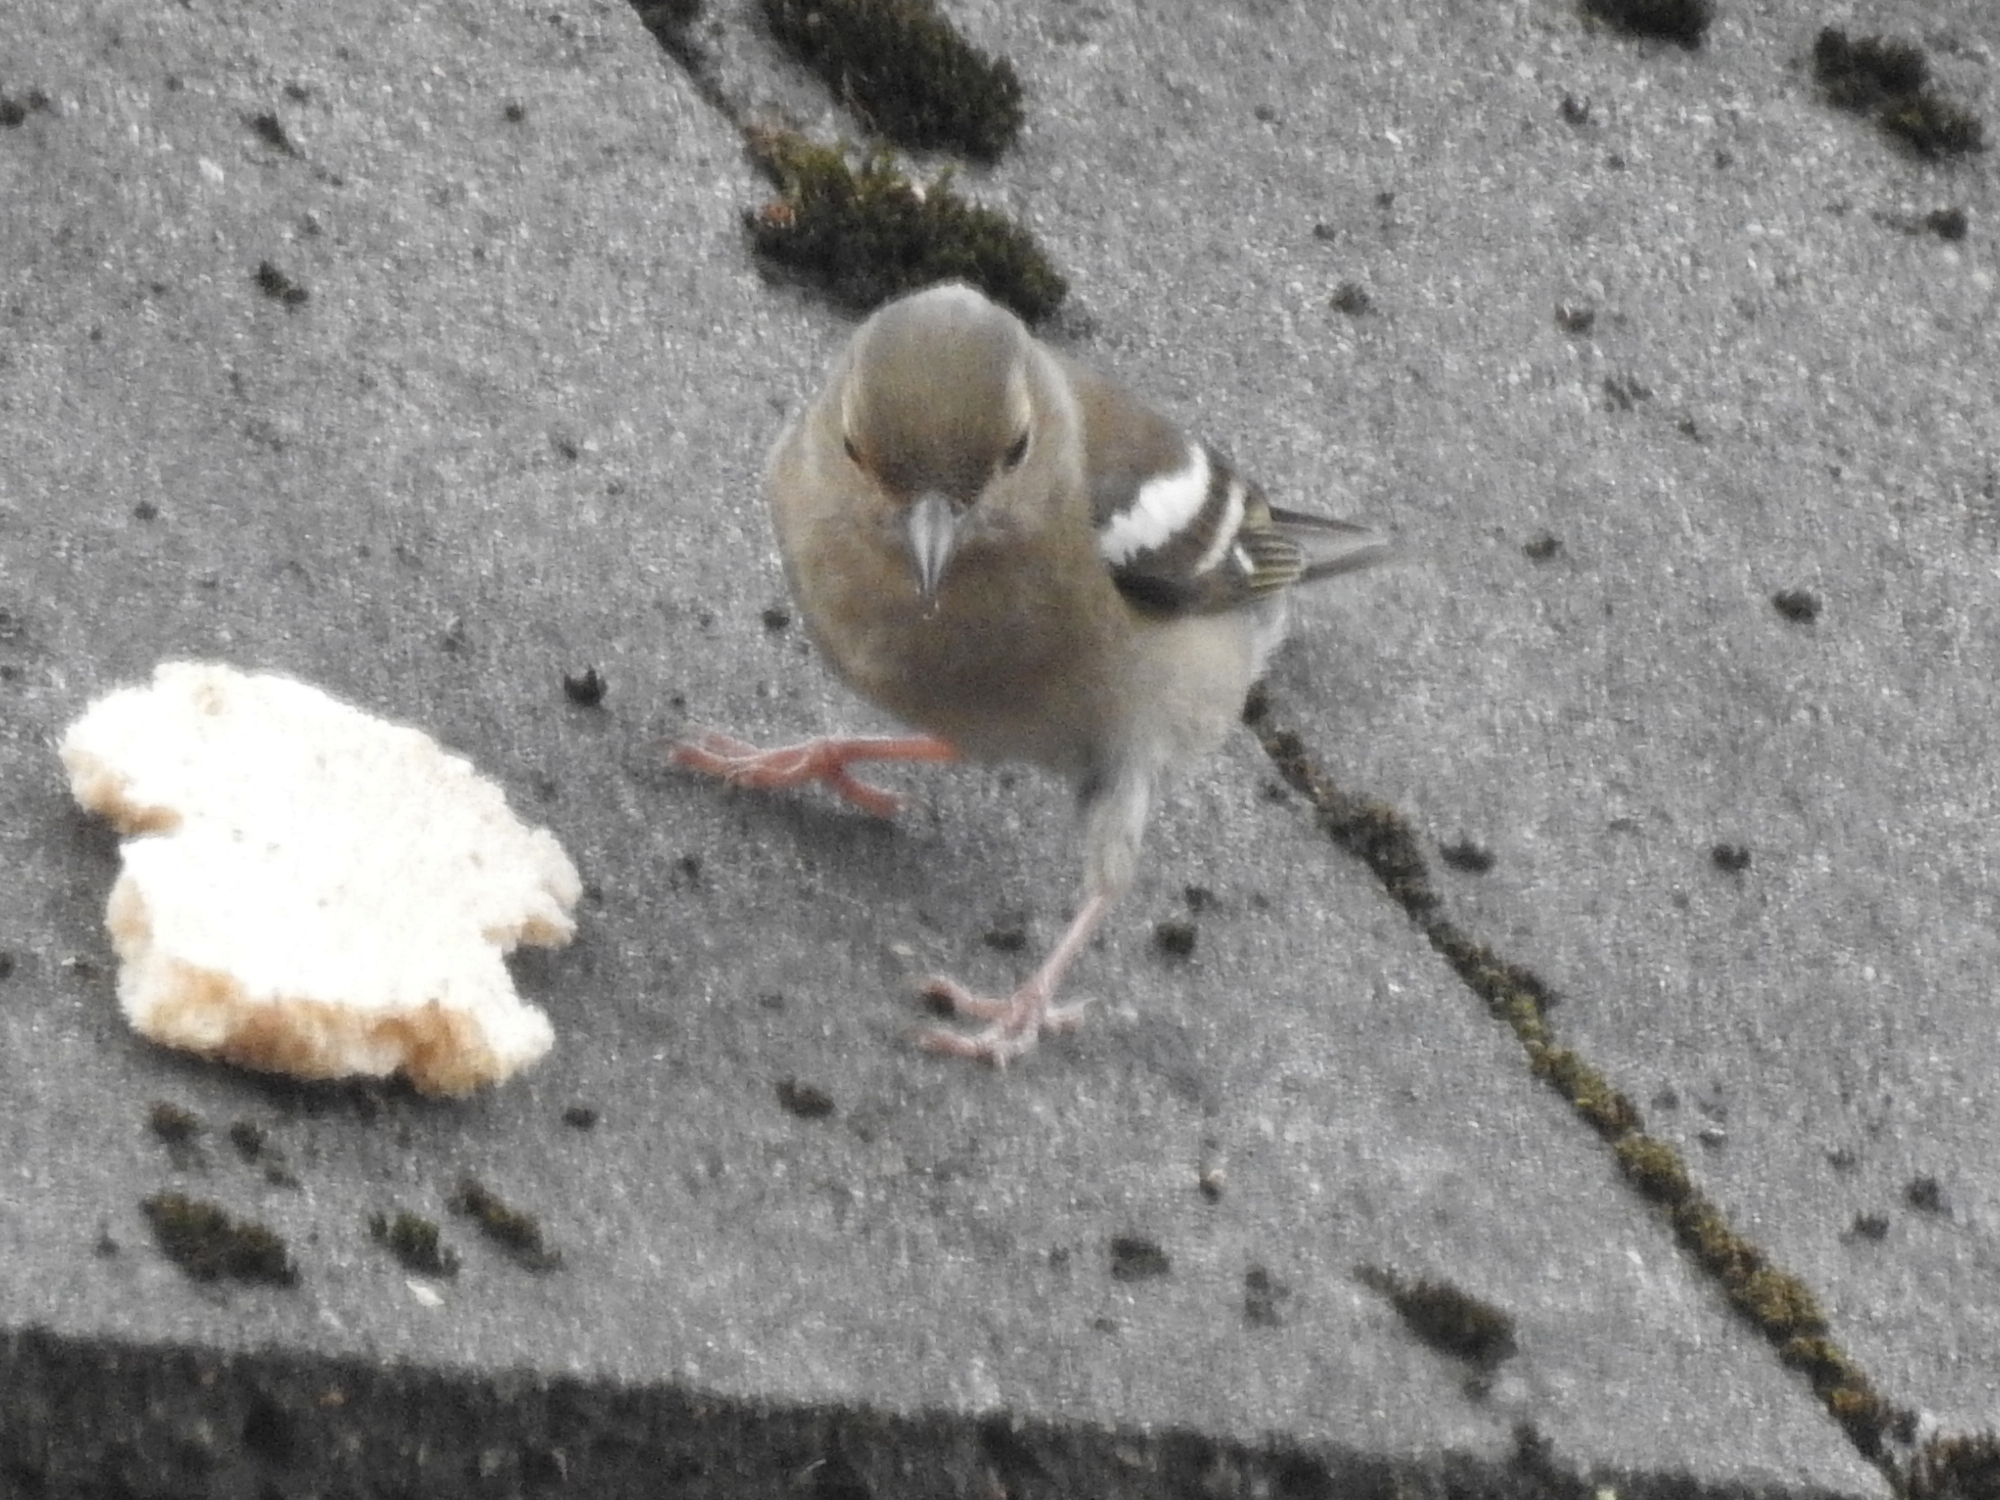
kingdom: Animalia
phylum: Chordata
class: Aves
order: Passeriformes
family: Fringillidae
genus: Fringilla
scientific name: Fringilla coelebs
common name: Common chaffinch
